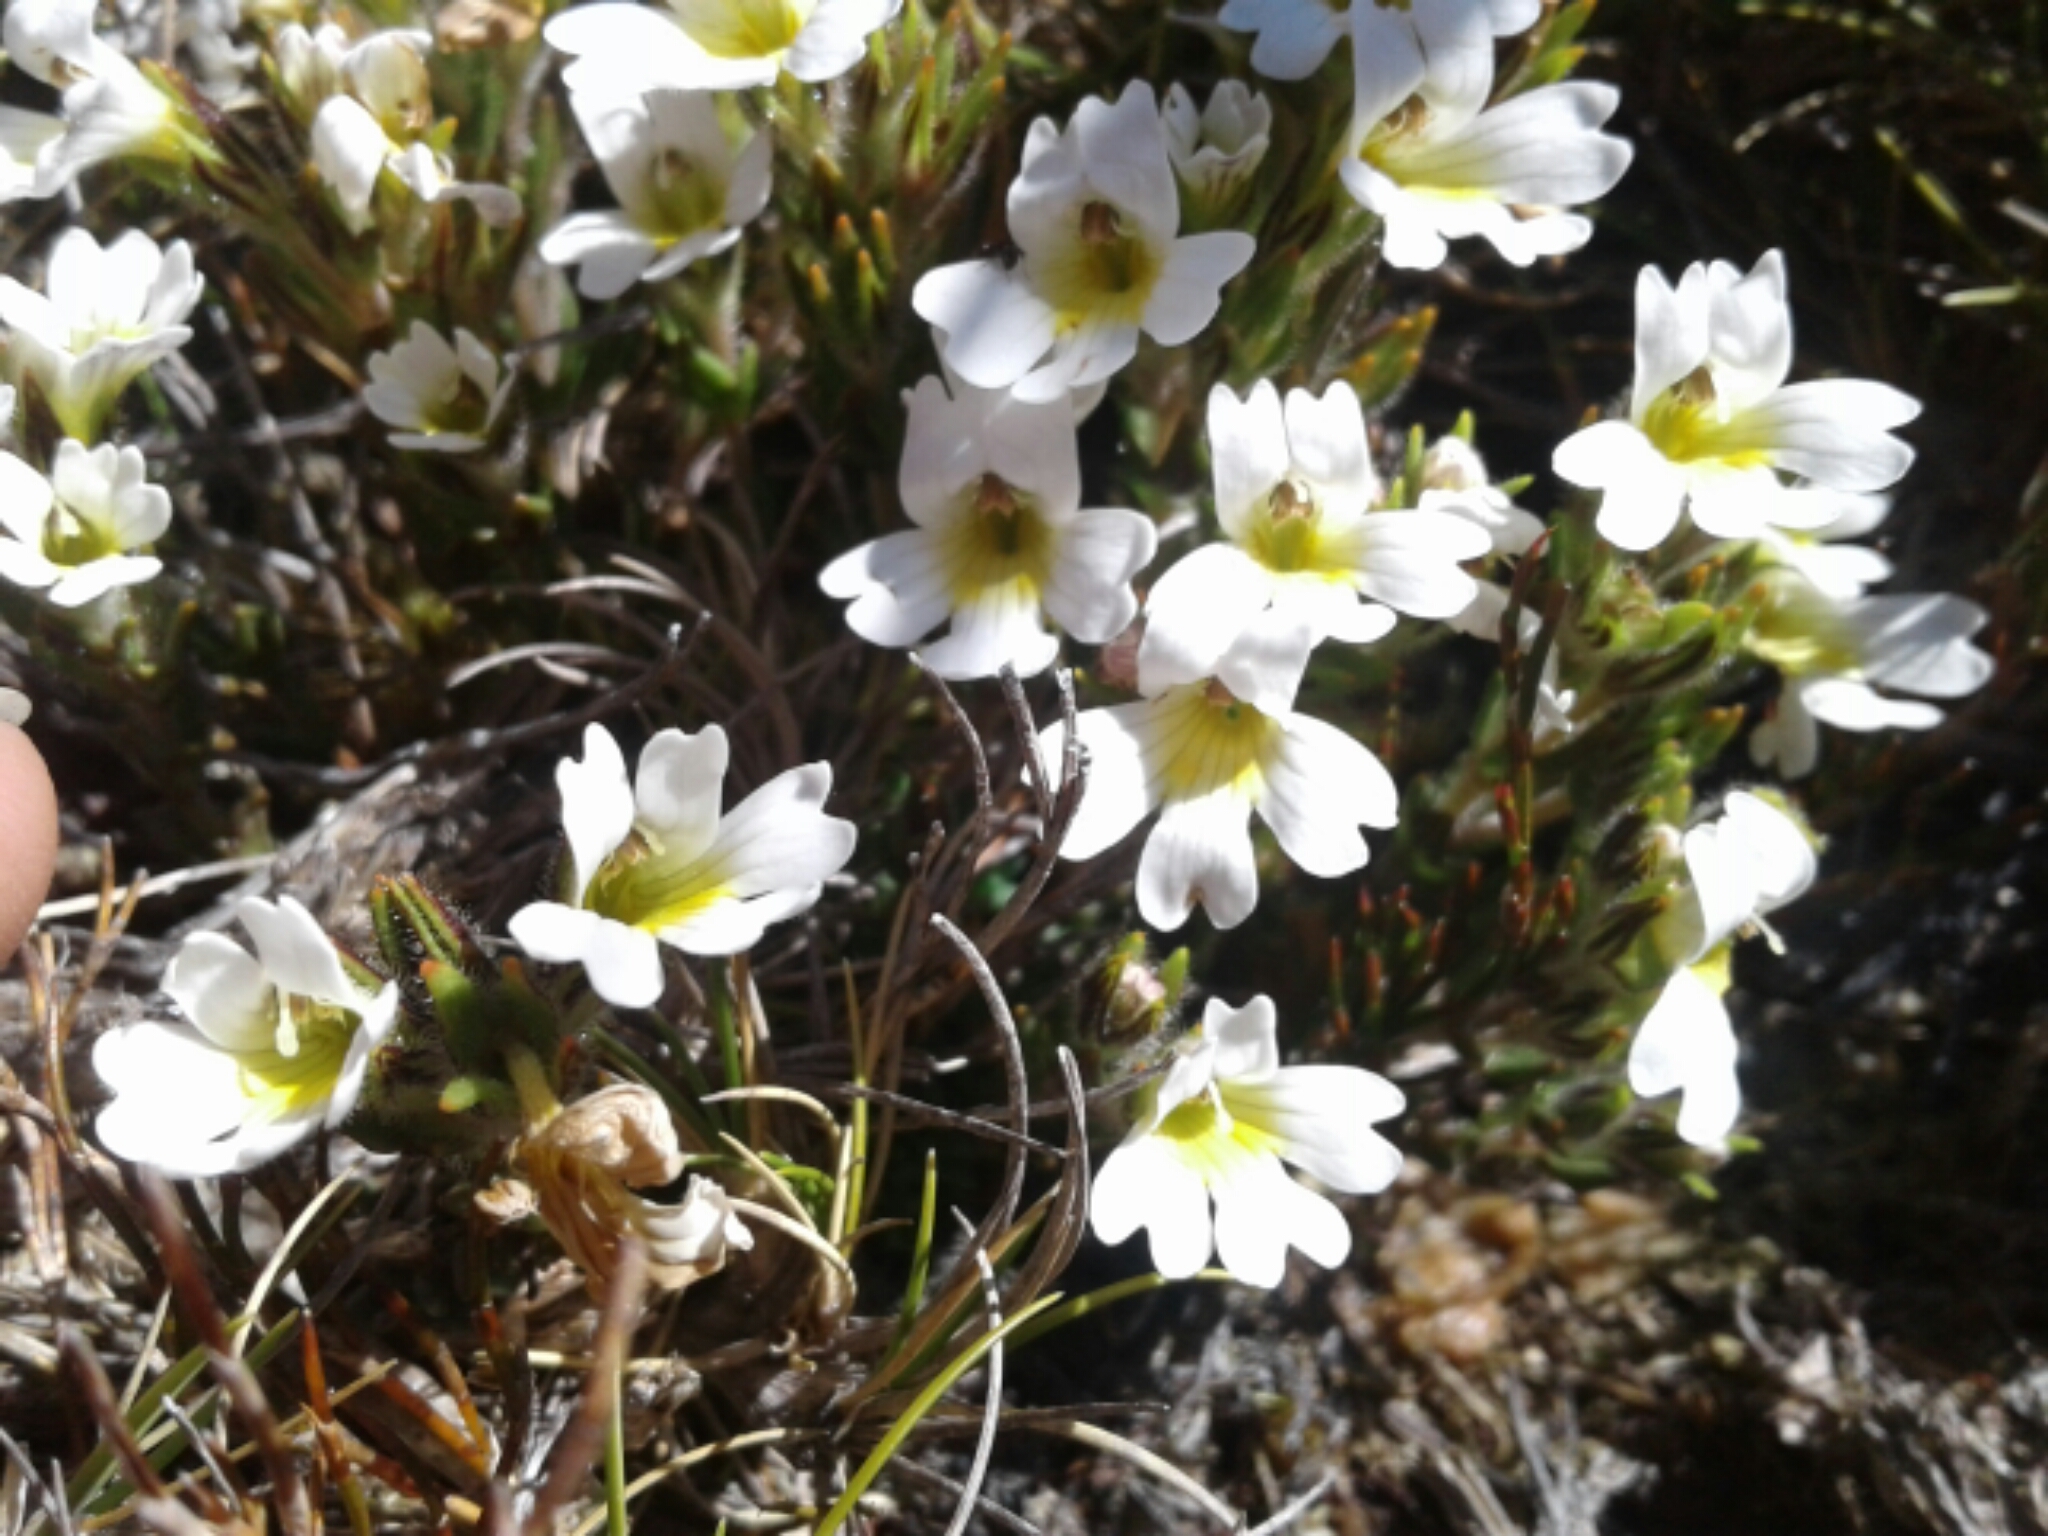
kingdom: Plantae
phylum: Tracheophyta
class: Magnoliopsida
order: Lamiales
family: Orobanchaceae
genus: Euphrasia
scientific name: Euphrasia townsonii
